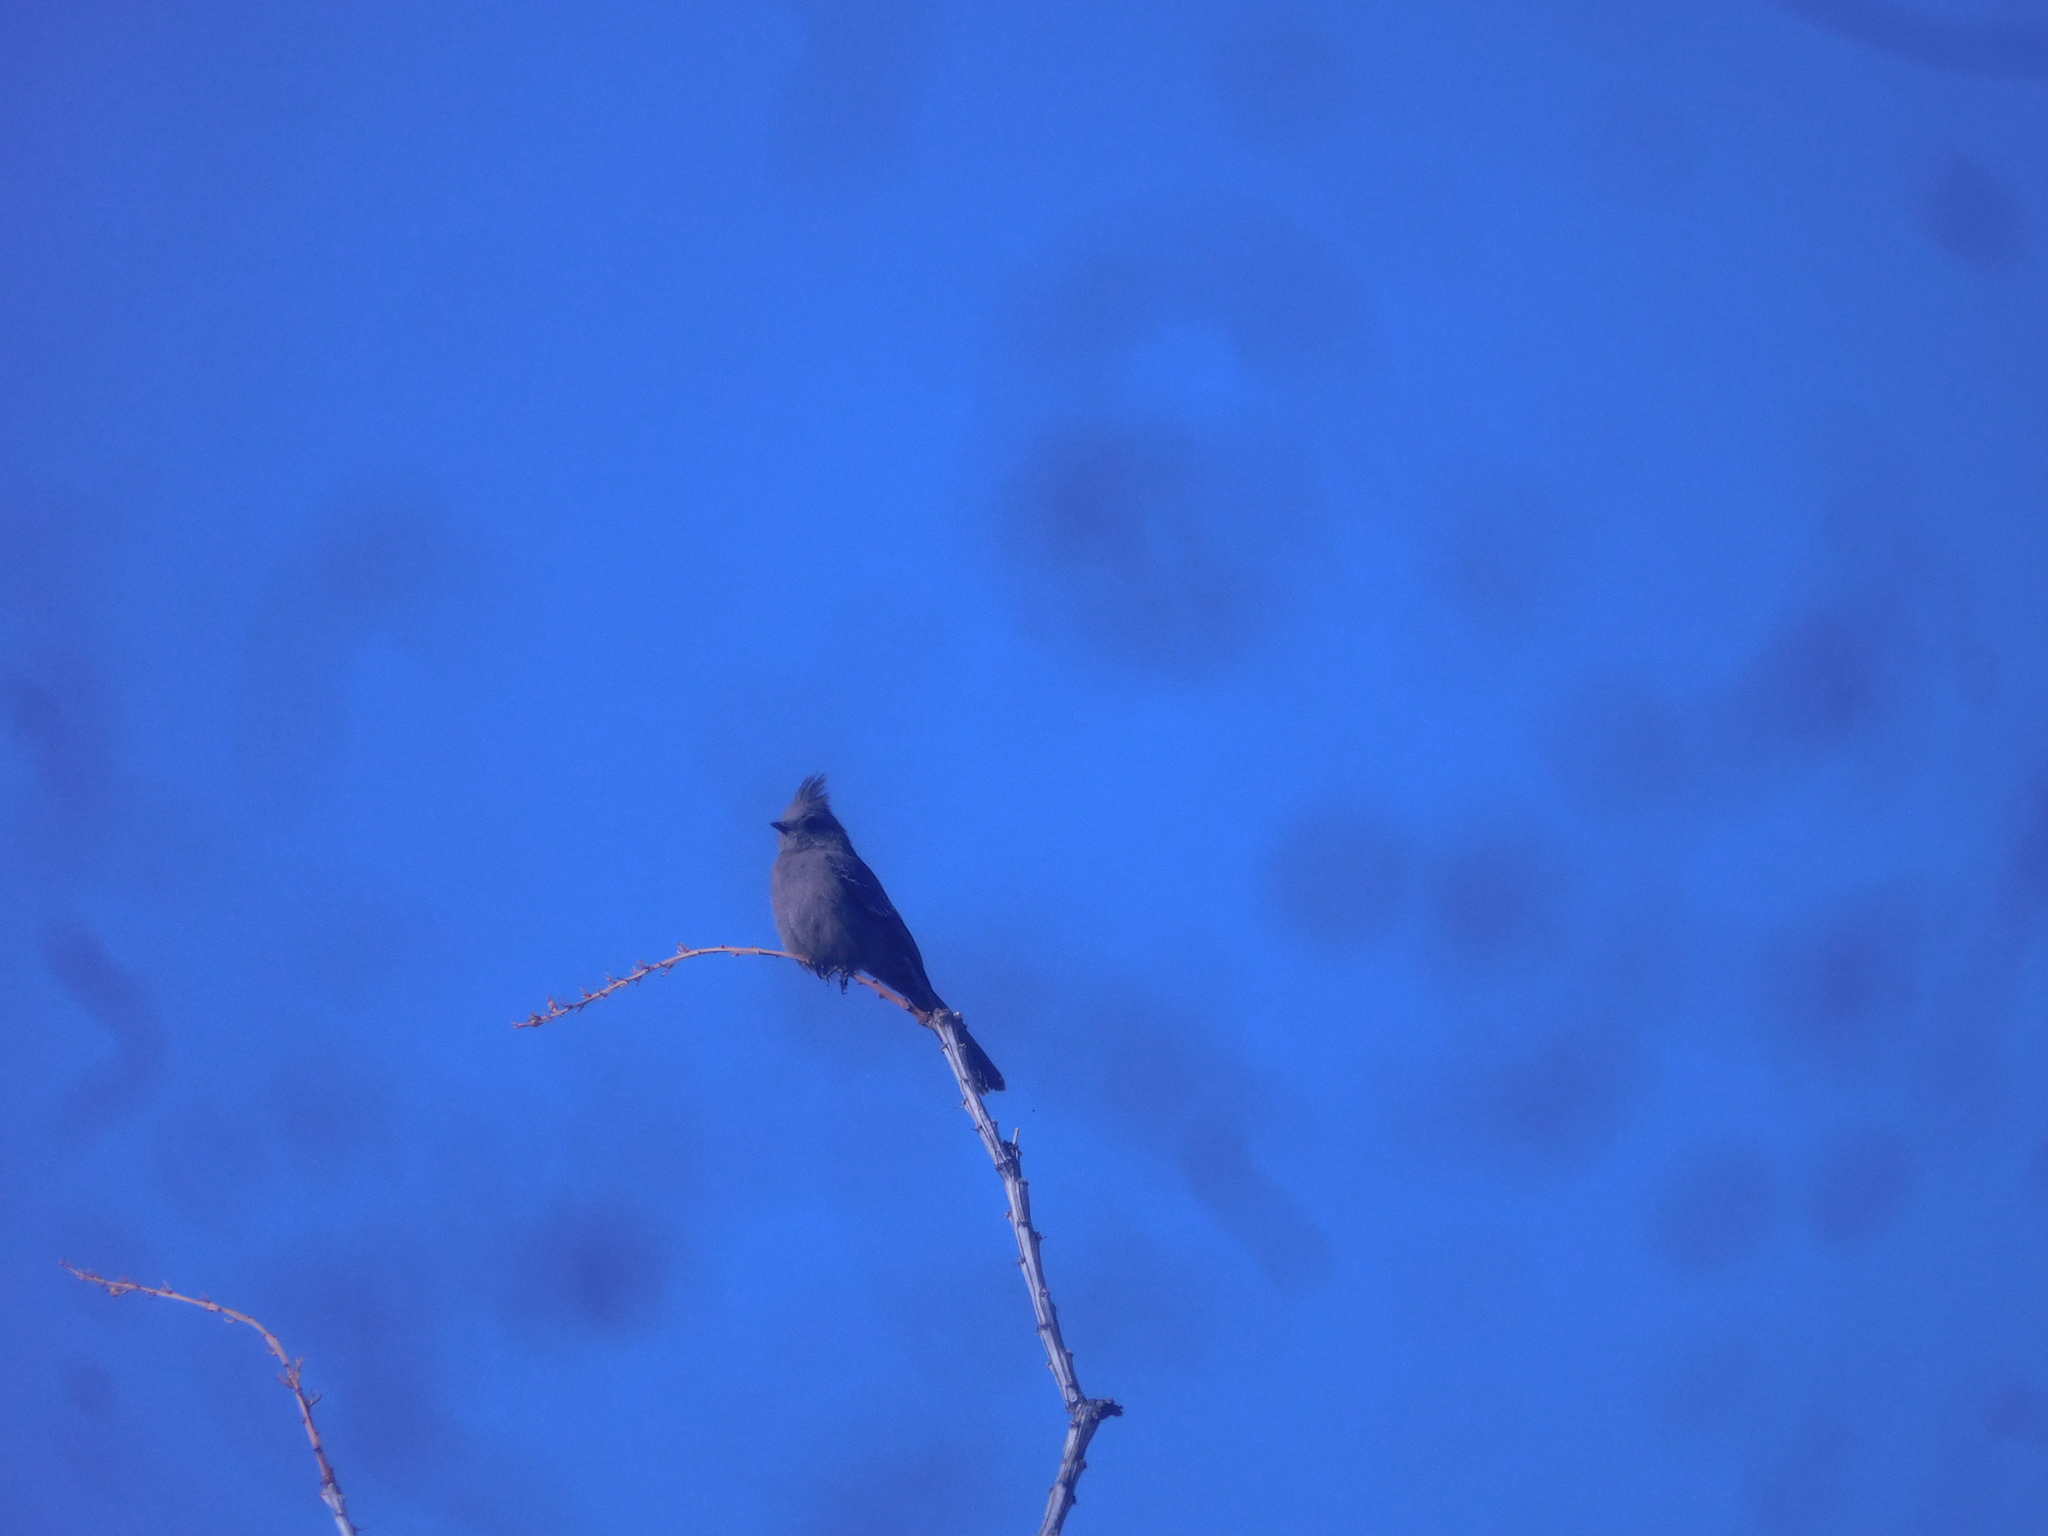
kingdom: Animalia
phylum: Chordata
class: Aves
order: Passeriformes
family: Ptilogonatidae
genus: Phainopepla
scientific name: Phainopepla nitens
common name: Phainopepla
